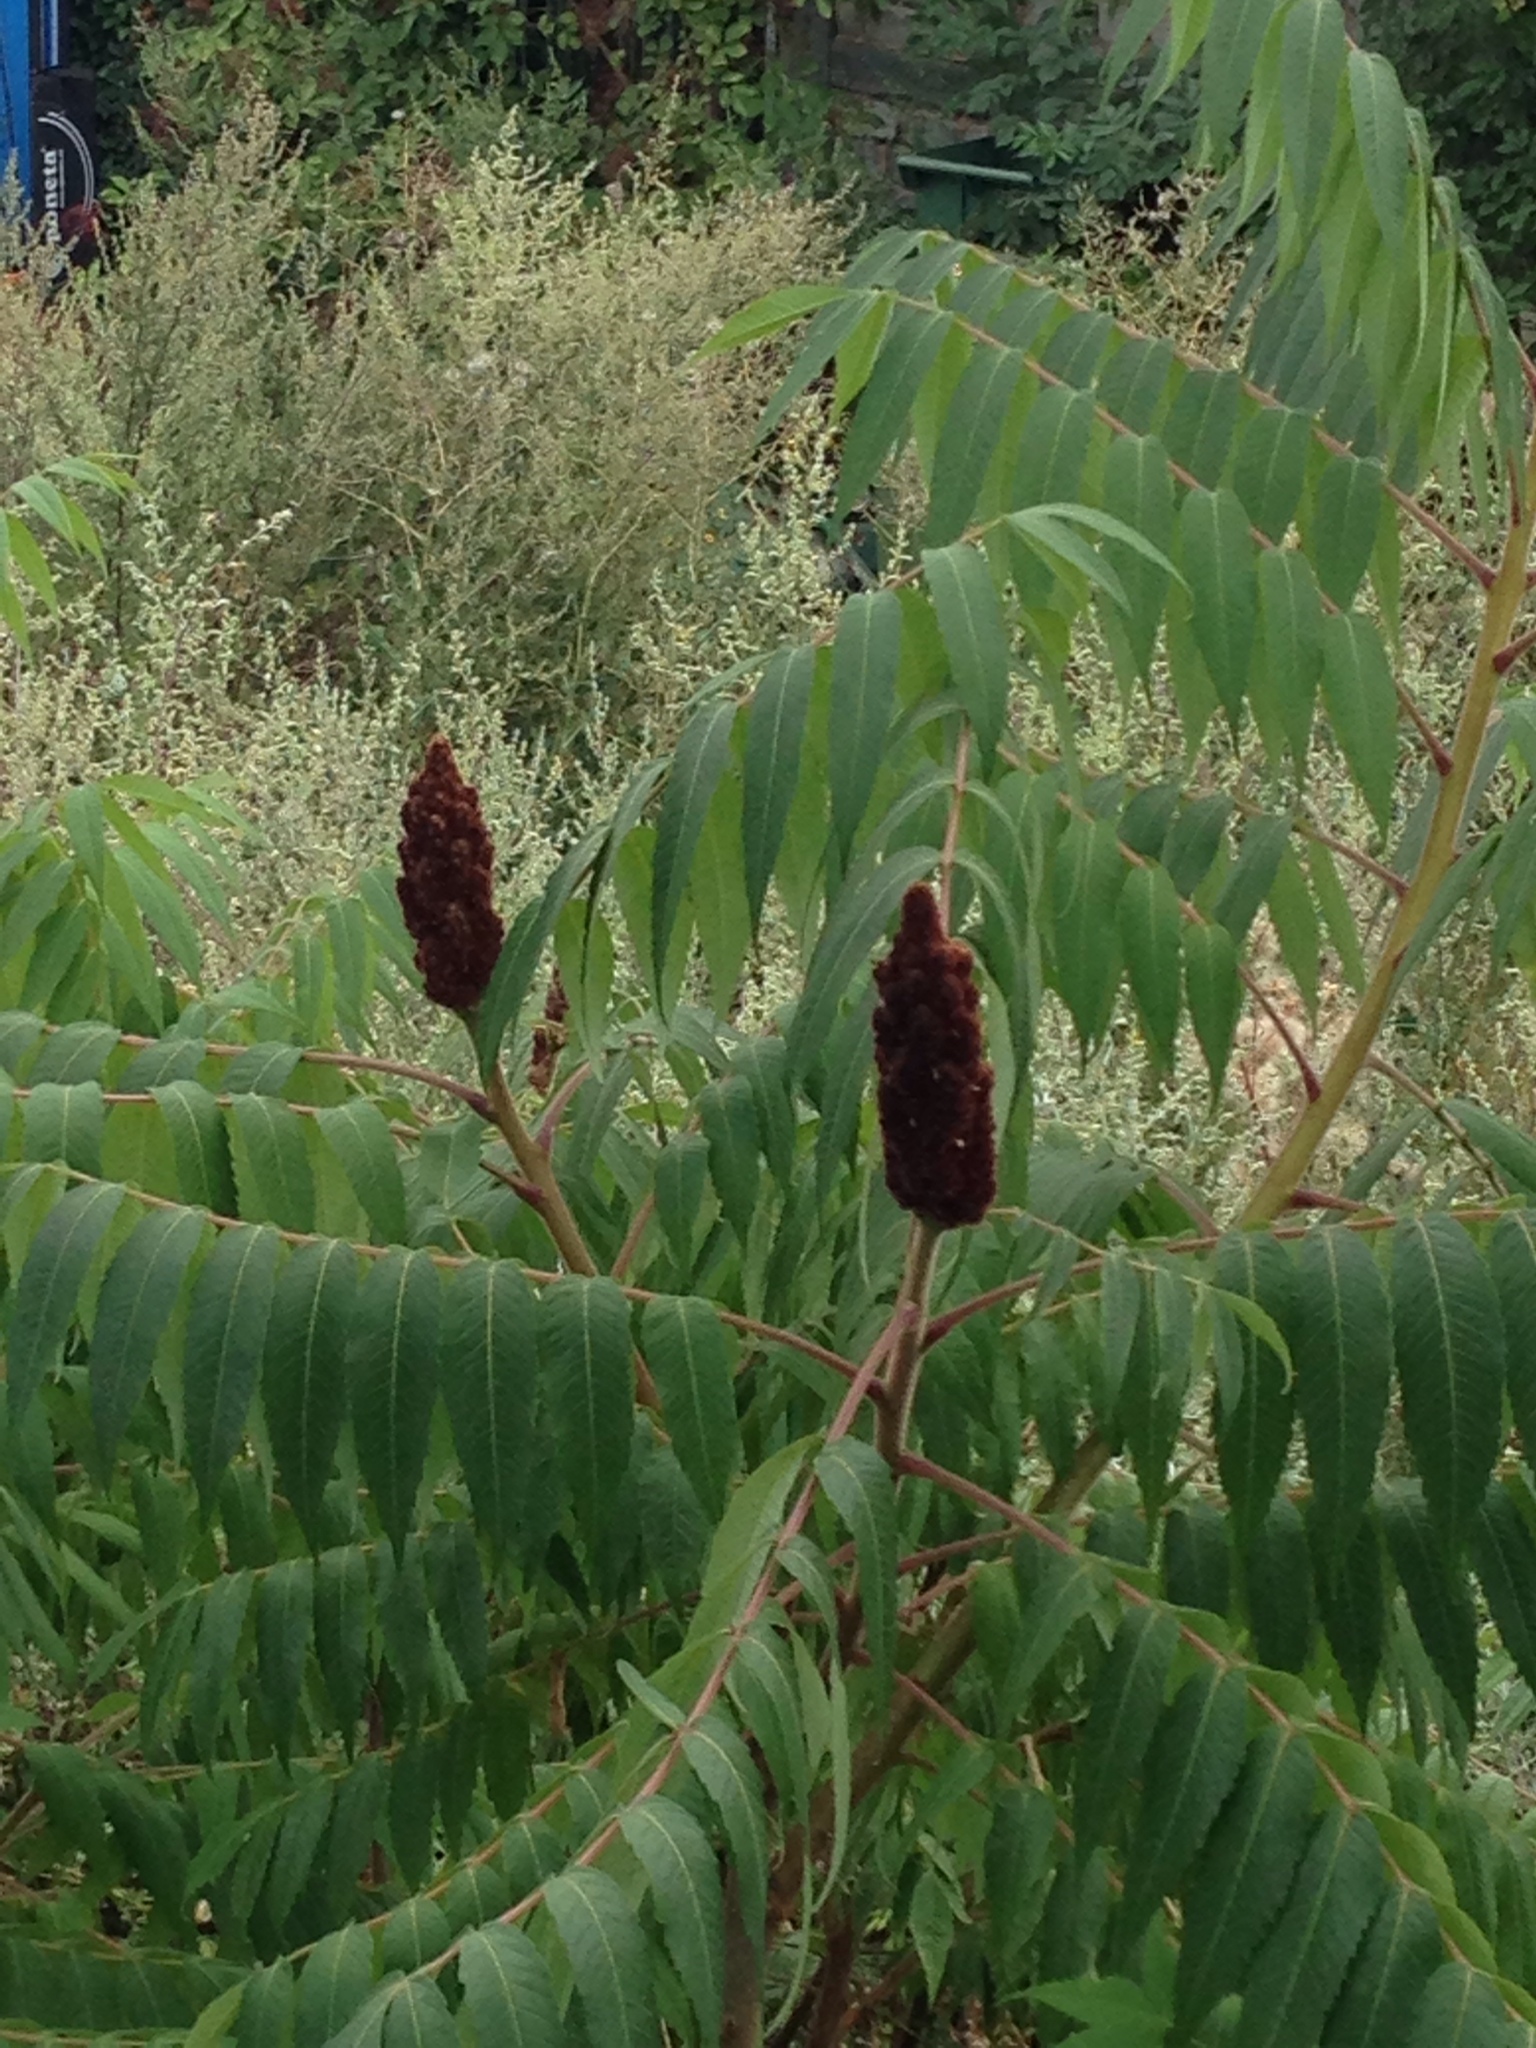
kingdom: Plantae
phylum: Tracheophyta
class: Magnoliopsida
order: Sapindales
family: Anacardiaceae
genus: Rhus
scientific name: Rhus typhina
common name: Staghorn sumac
